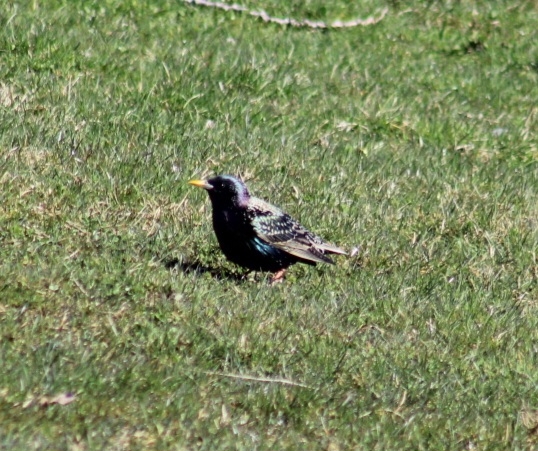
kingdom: Animalia
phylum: Chordata
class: Aves
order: Passeriformes
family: Sturnidae
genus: Sturnus
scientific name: Sturnus vulgaris
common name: Common starling
